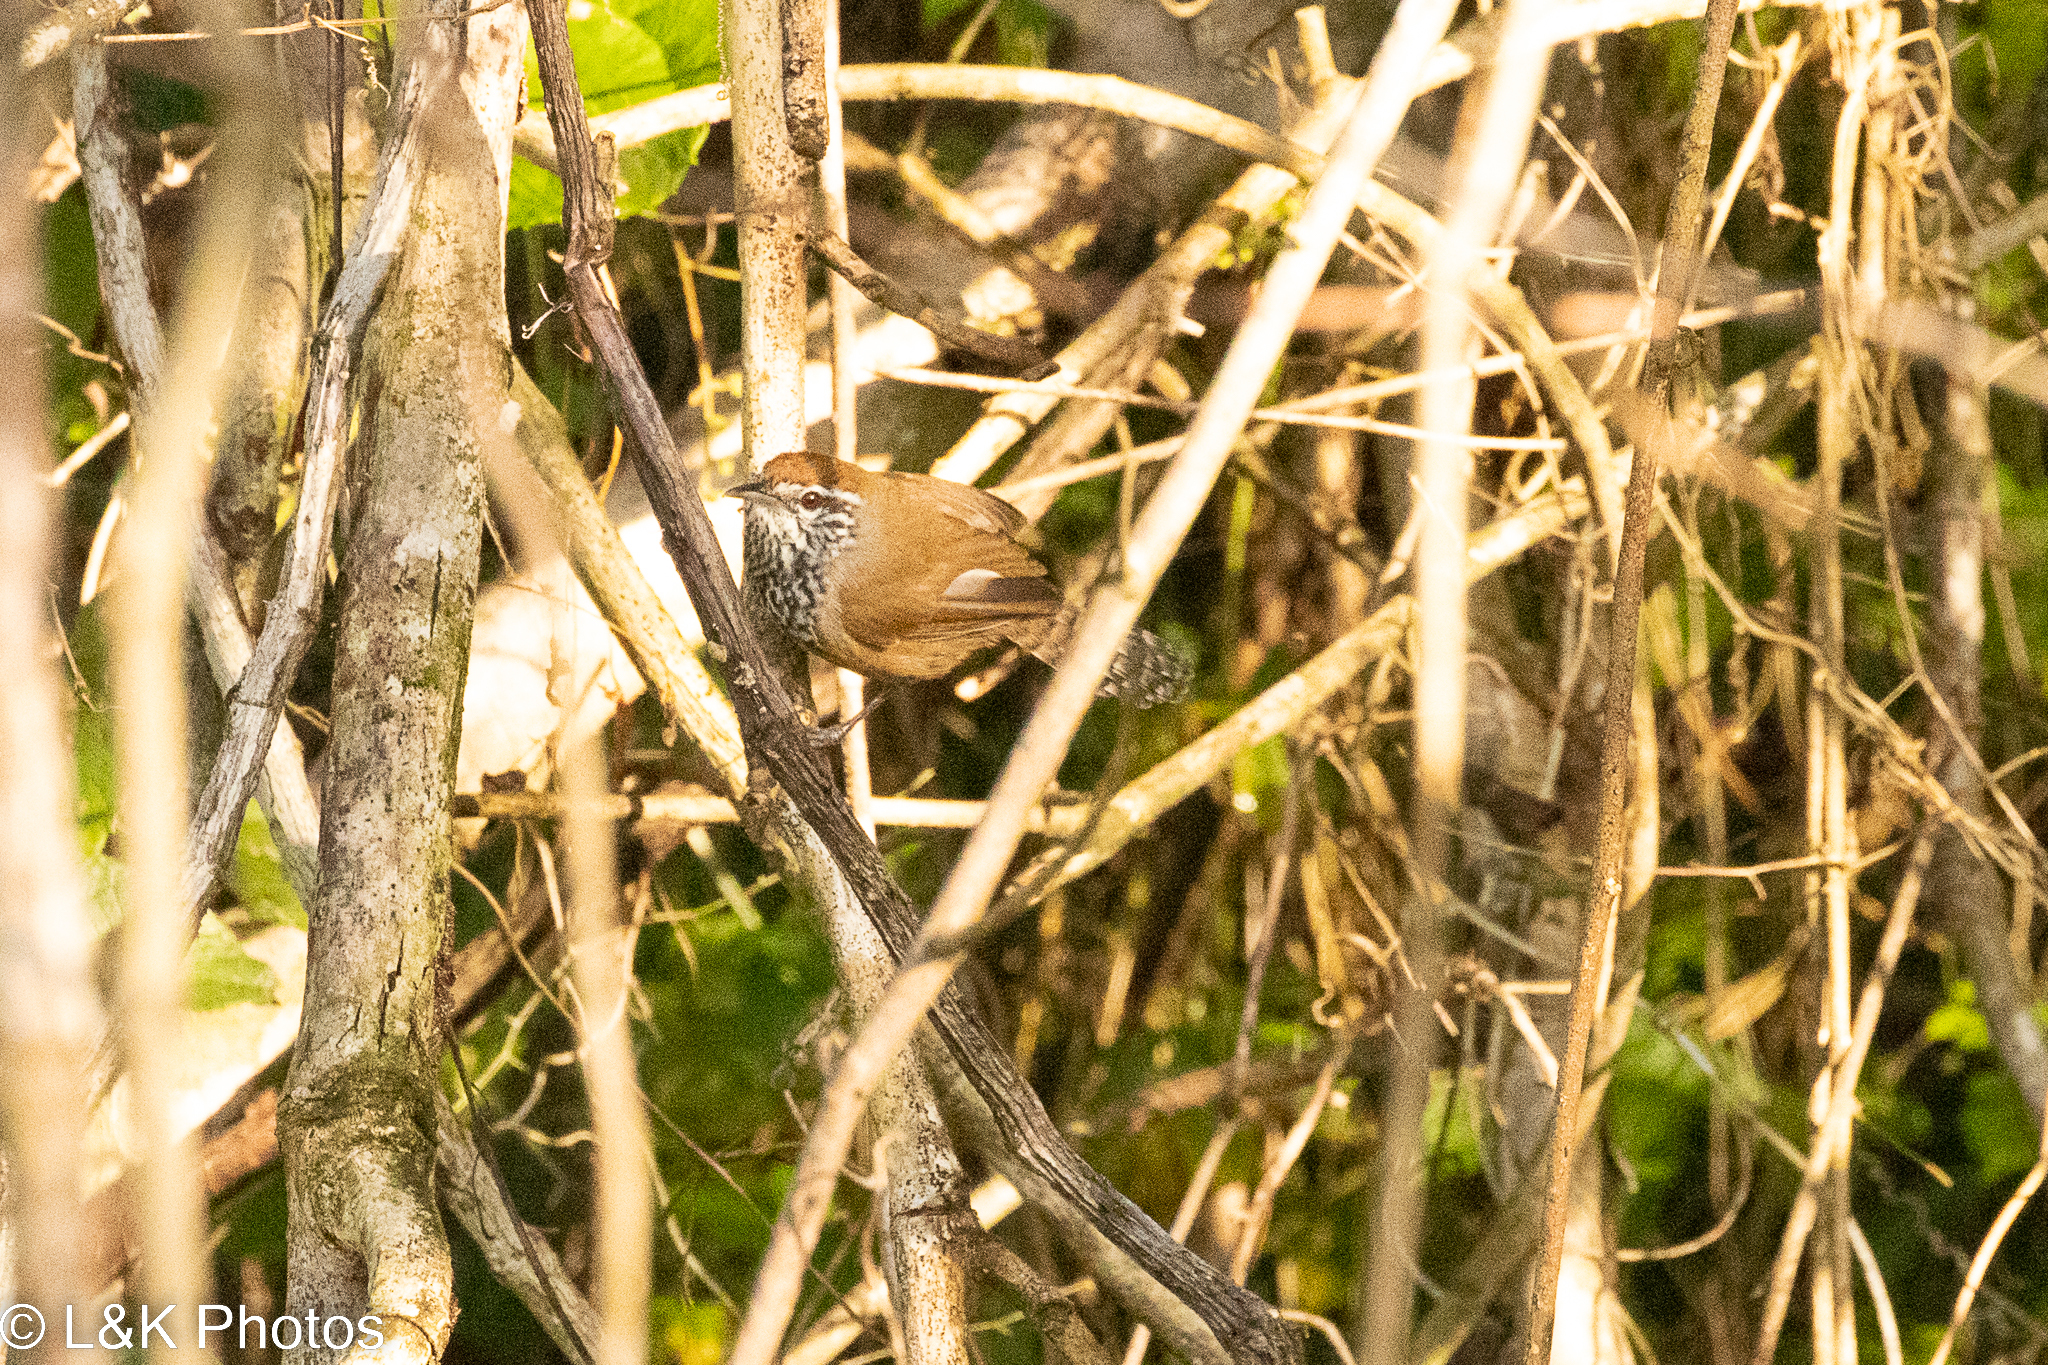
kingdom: Animalia
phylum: Chordata
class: Aves
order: Passeriformes
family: Troglodytidae
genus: Pheugopedius
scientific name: Pheugopedius maculipectus
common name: Spot-breasted wren
